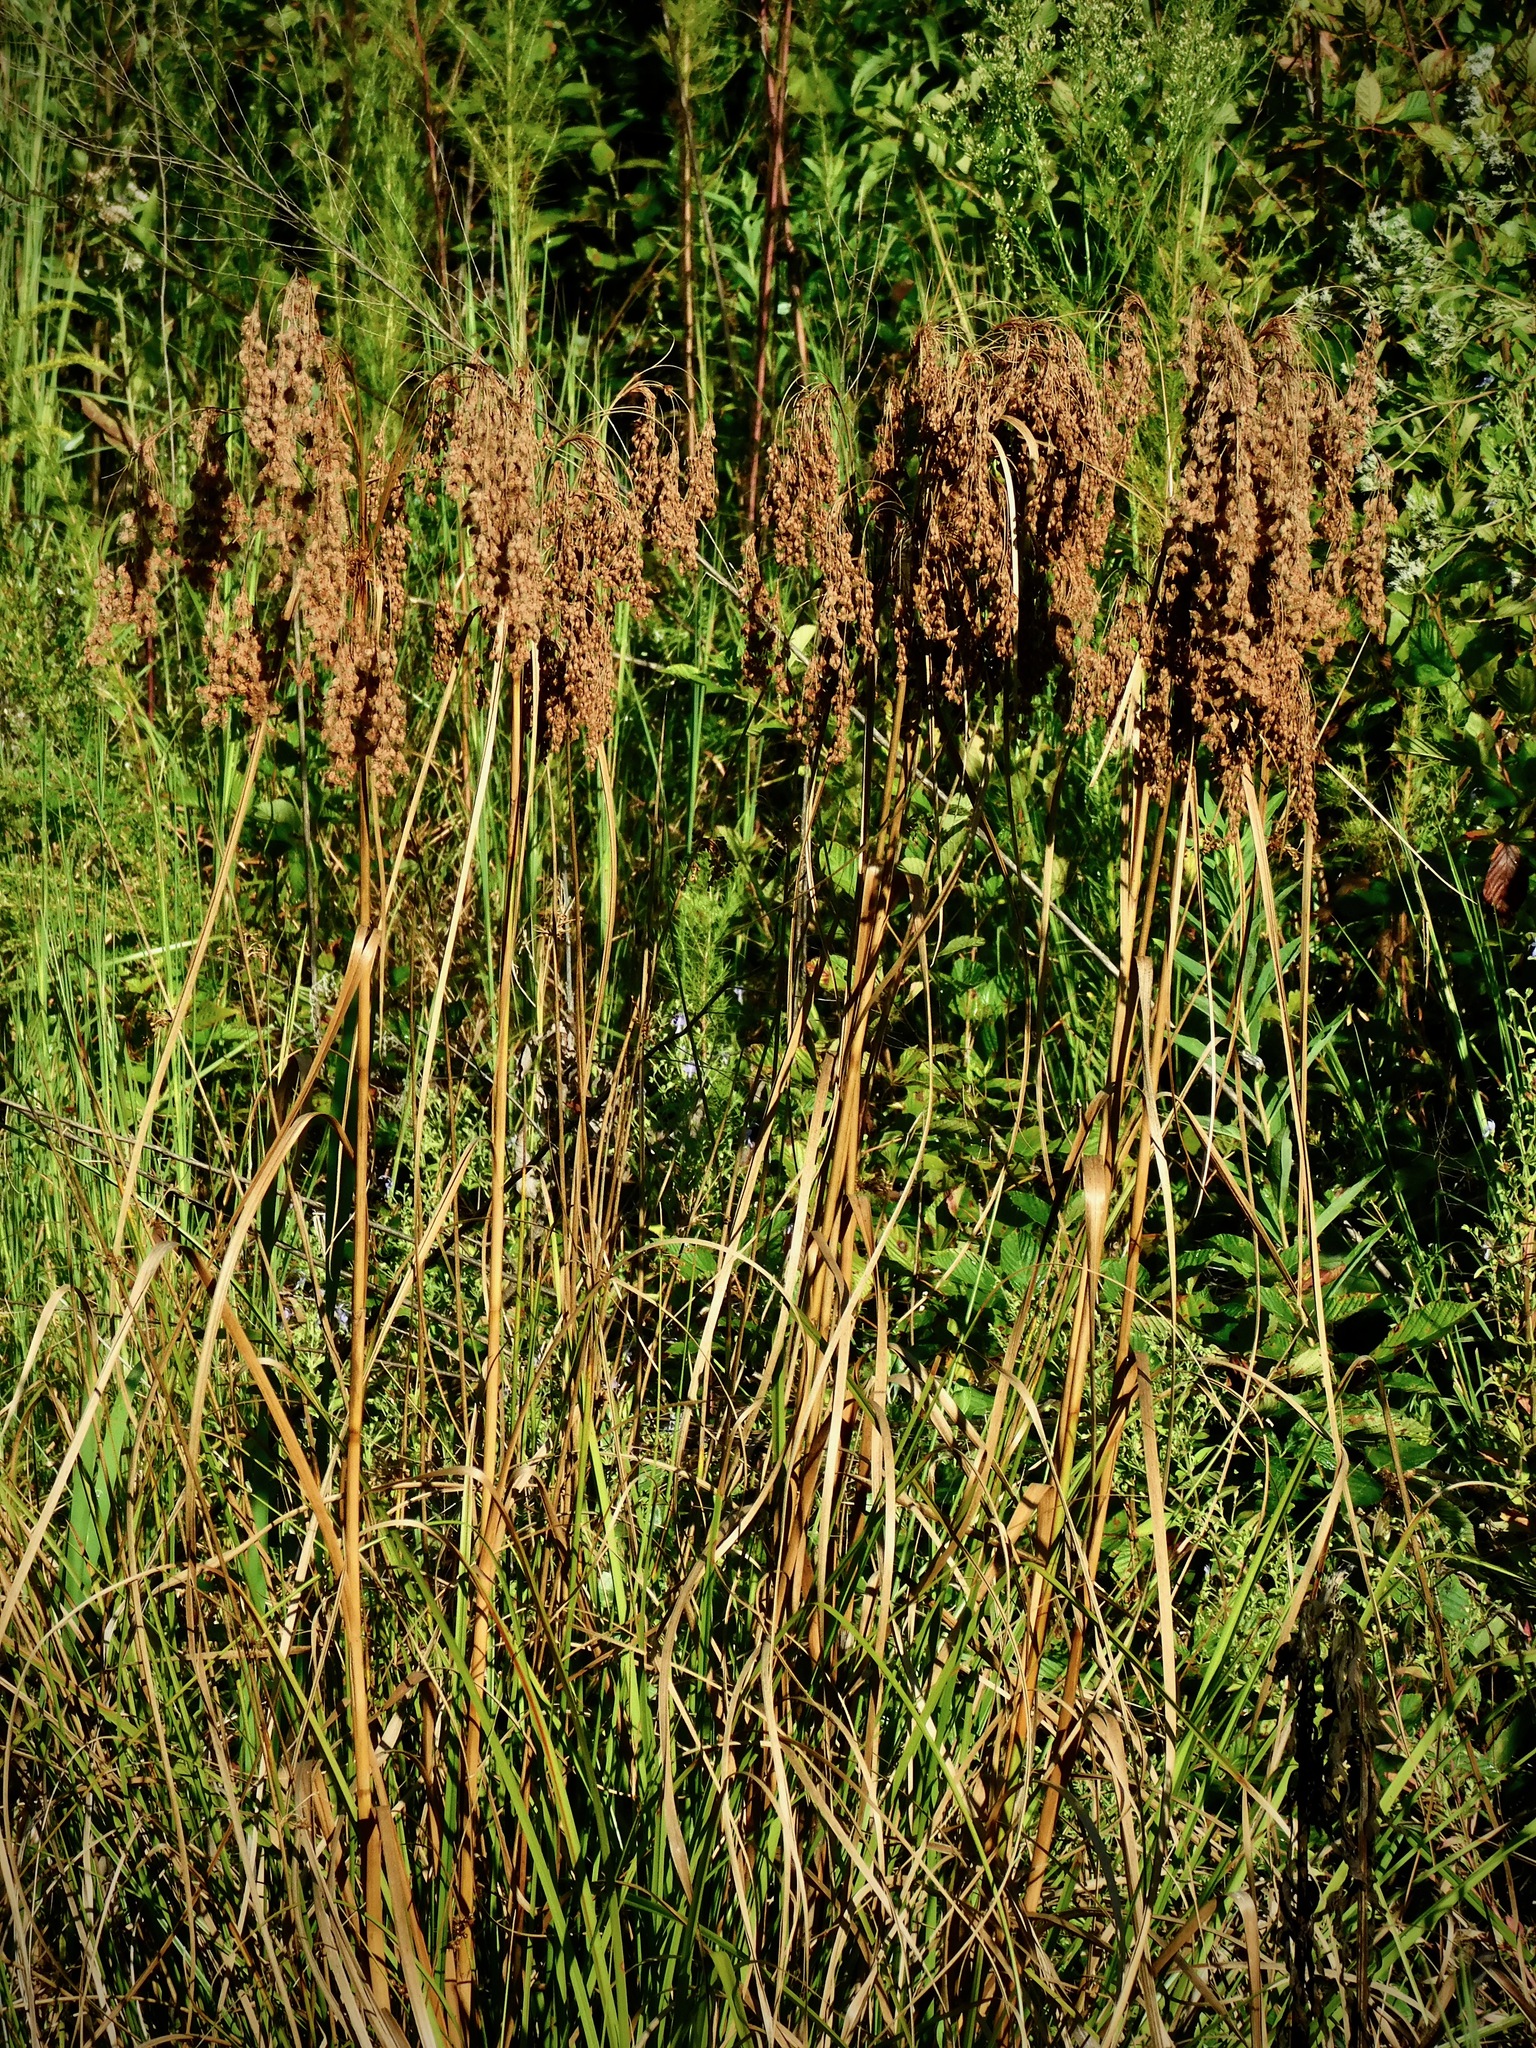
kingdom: Plantae
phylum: Tracheophyta
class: Liliopsida
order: Poales
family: Cyperaceae
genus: Scirpus
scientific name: Scirpus cyperinus
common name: Black-sheathed bulrush
